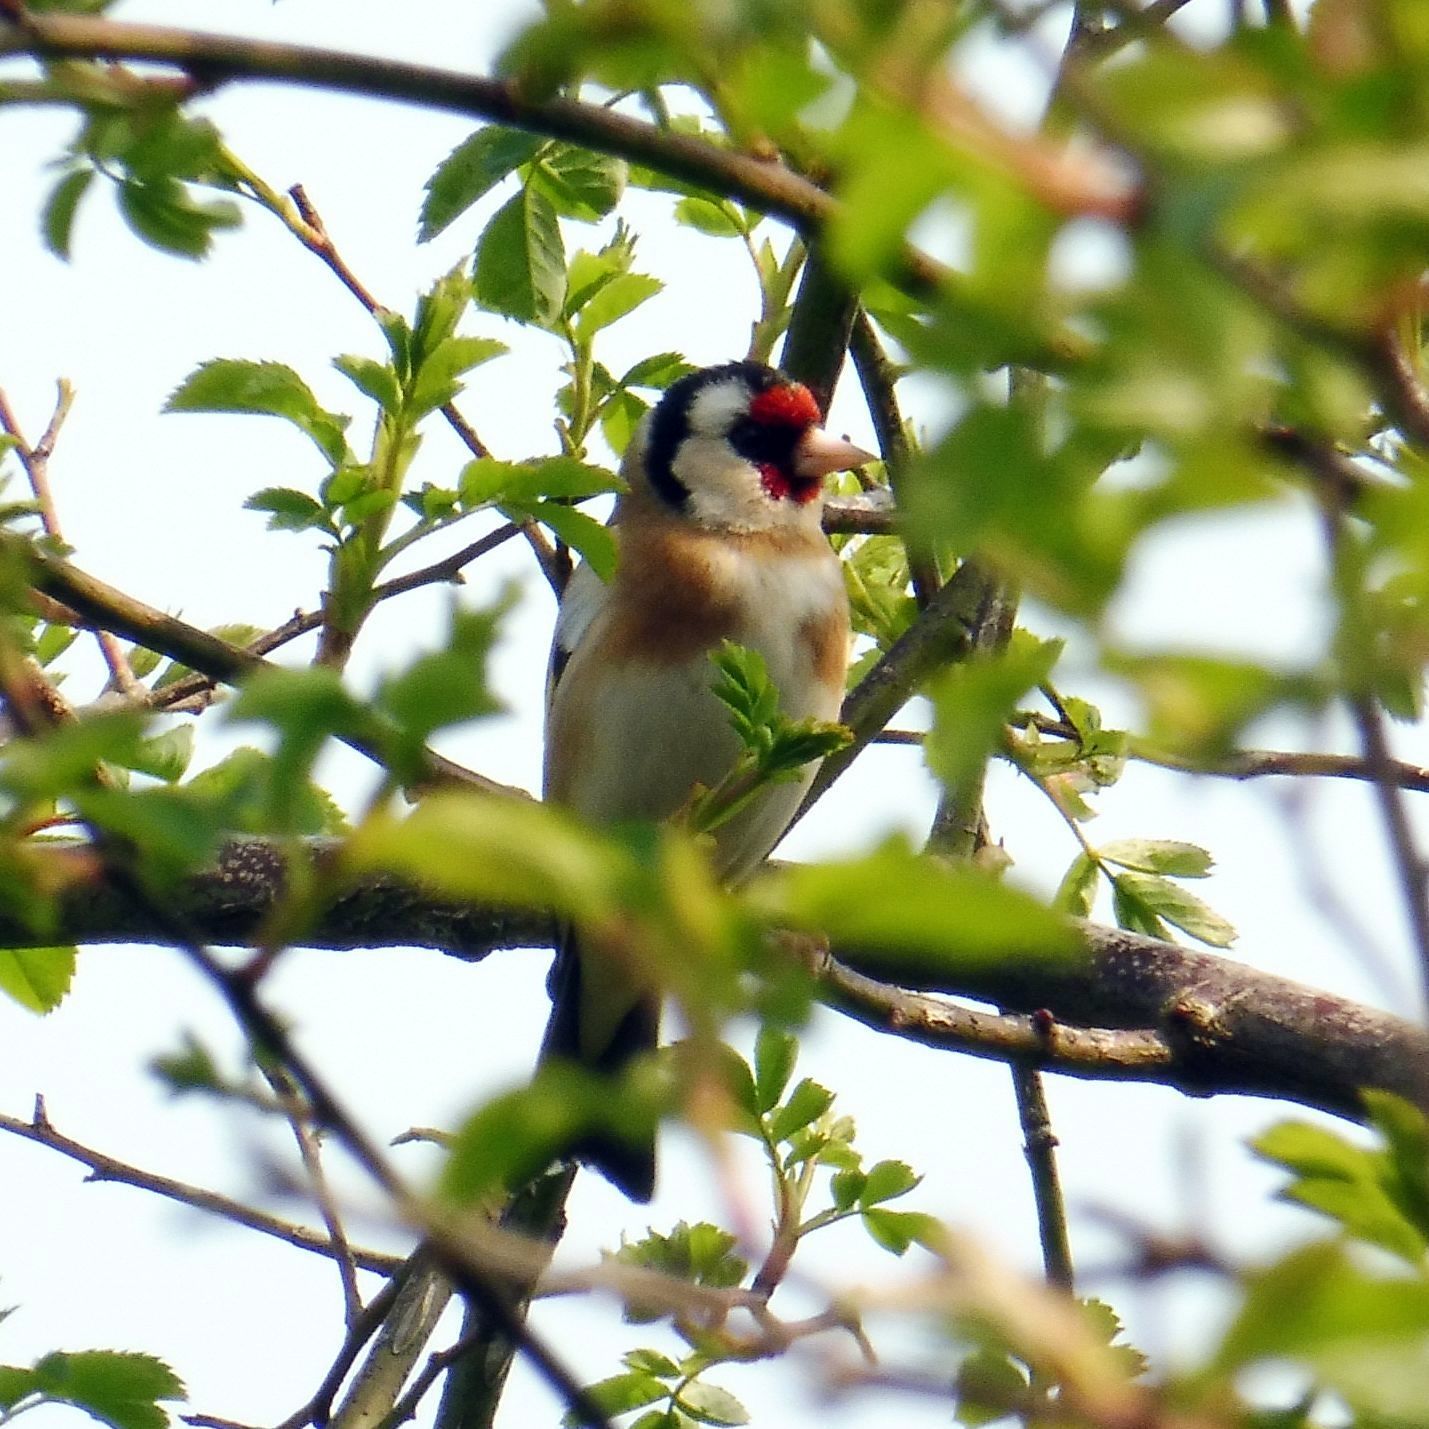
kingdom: Animalia
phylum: Chordata
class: Aves
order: Passeriformes
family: Fringillidae
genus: Carduelis
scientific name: Carduelis carduelis
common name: European goldfinch
